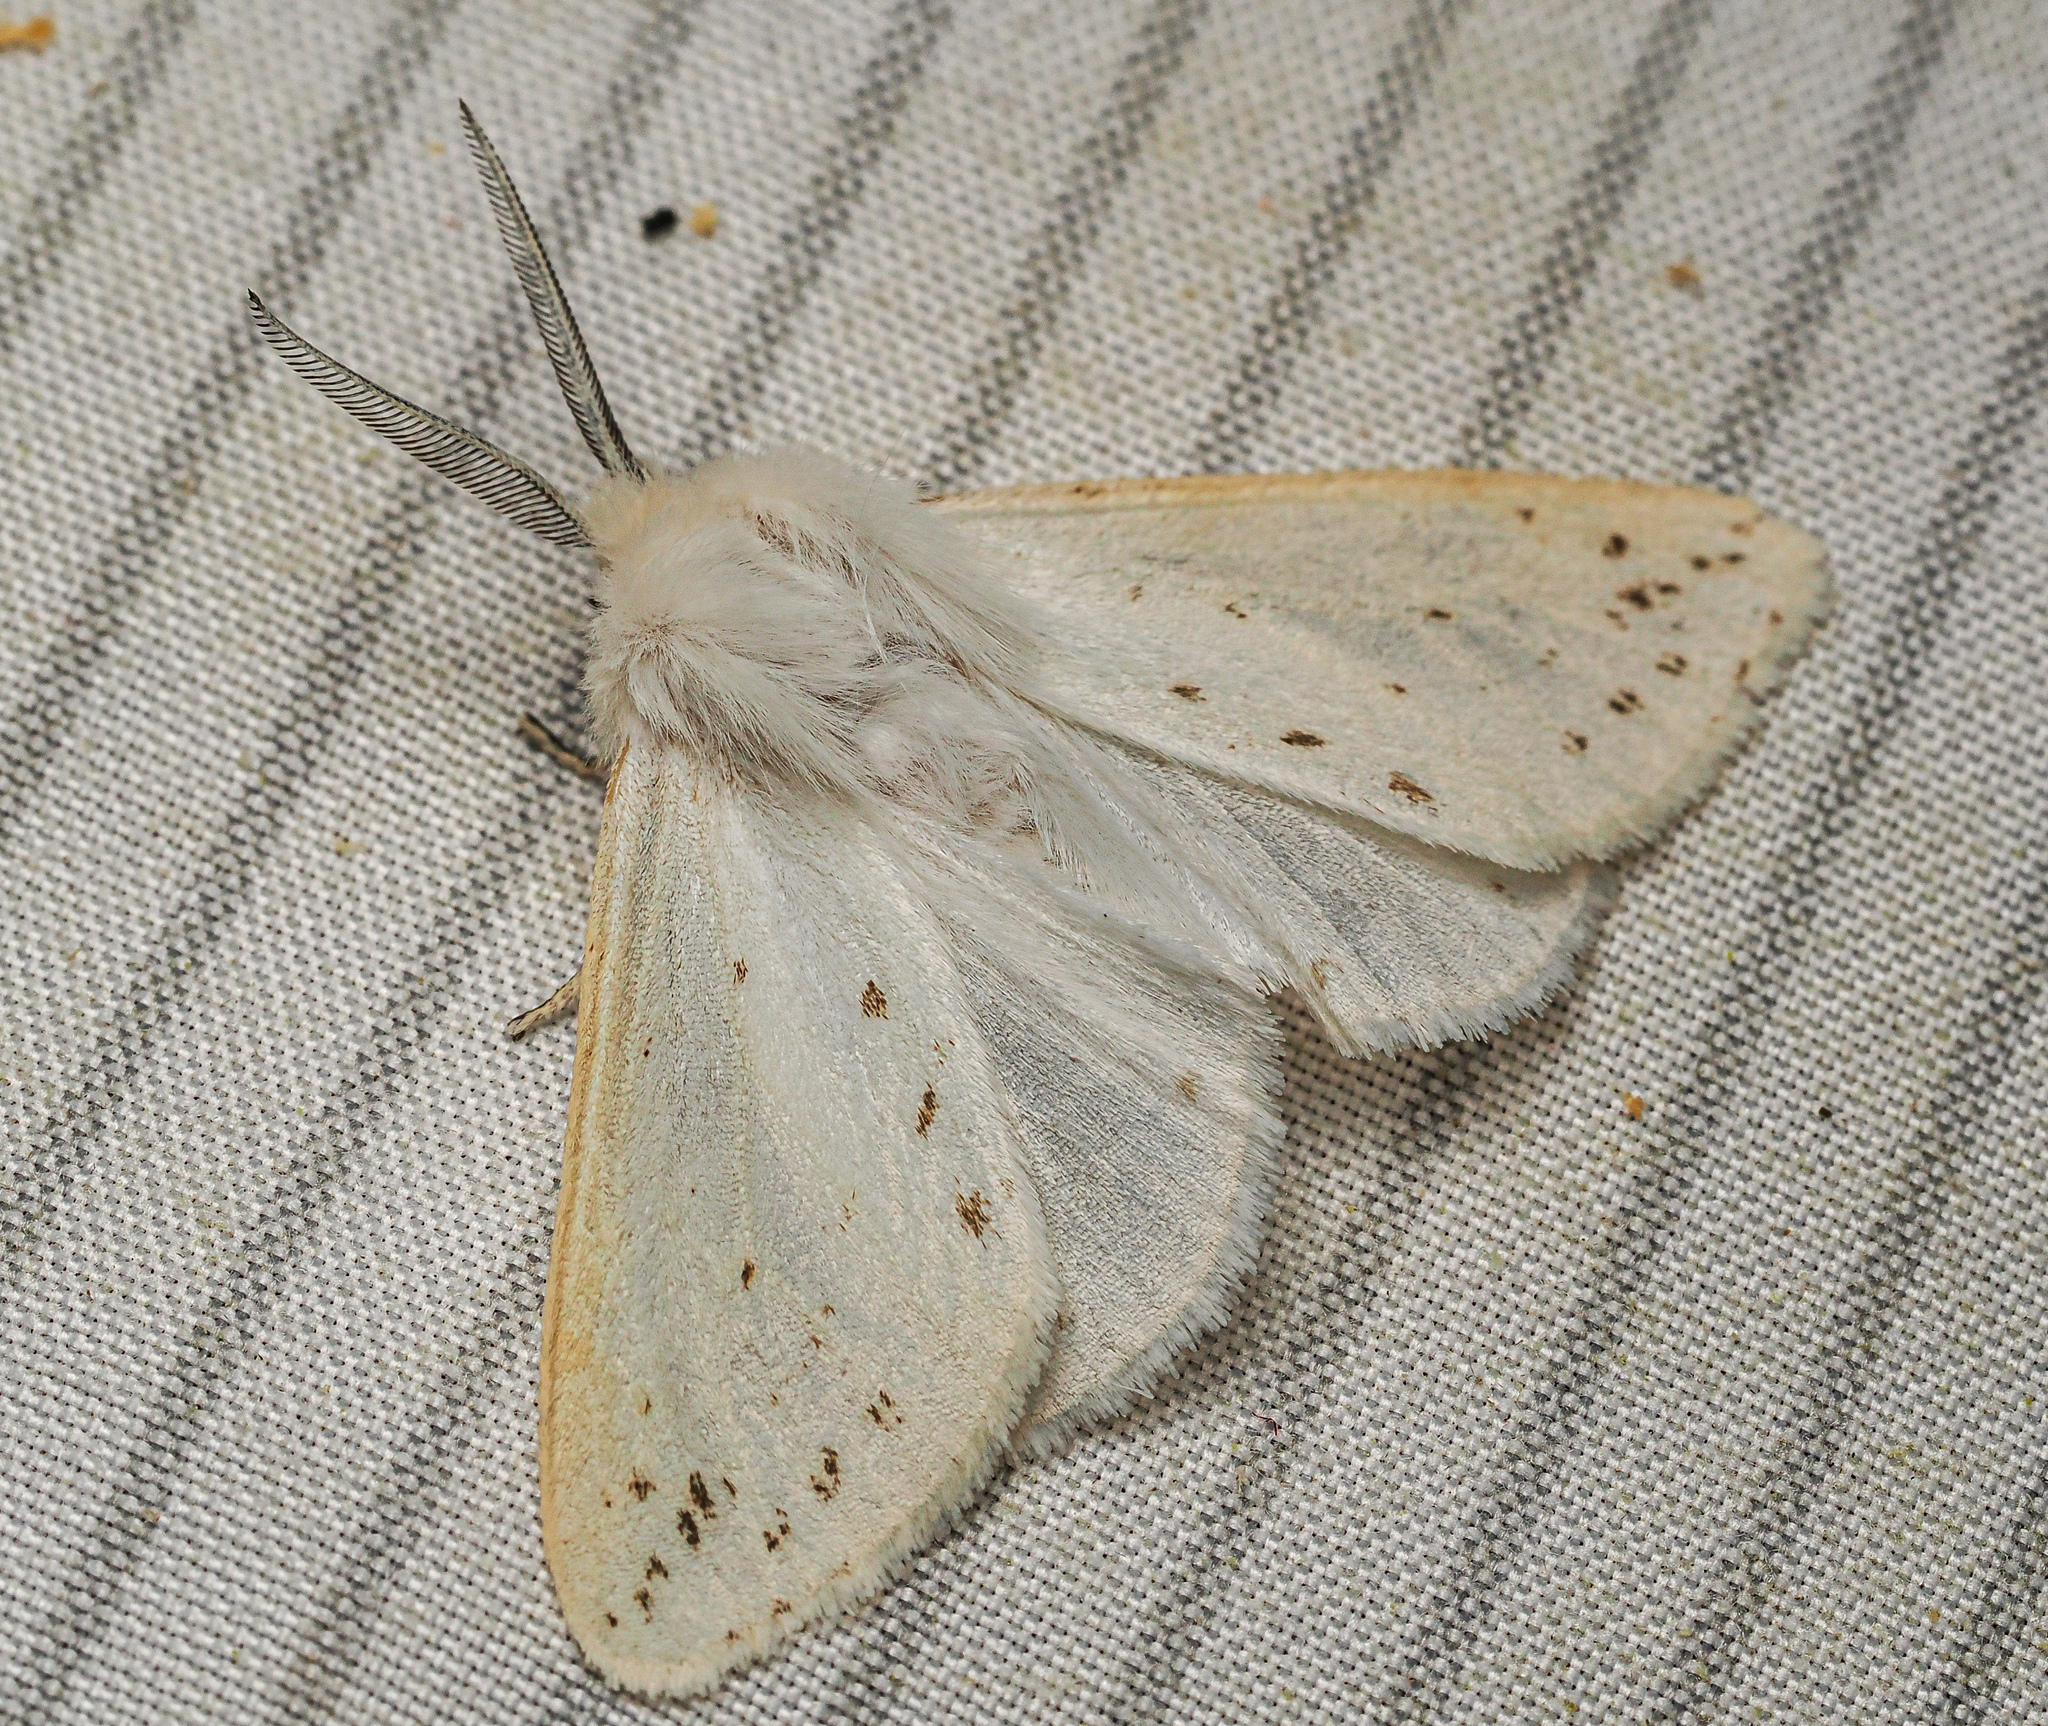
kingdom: Animalia
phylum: Arthropoda
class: Insecta
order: Lepidoptera
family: Erebidae
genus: Spilosoma
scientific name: Spilosoma congrua
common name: Agreeable tiger moth
